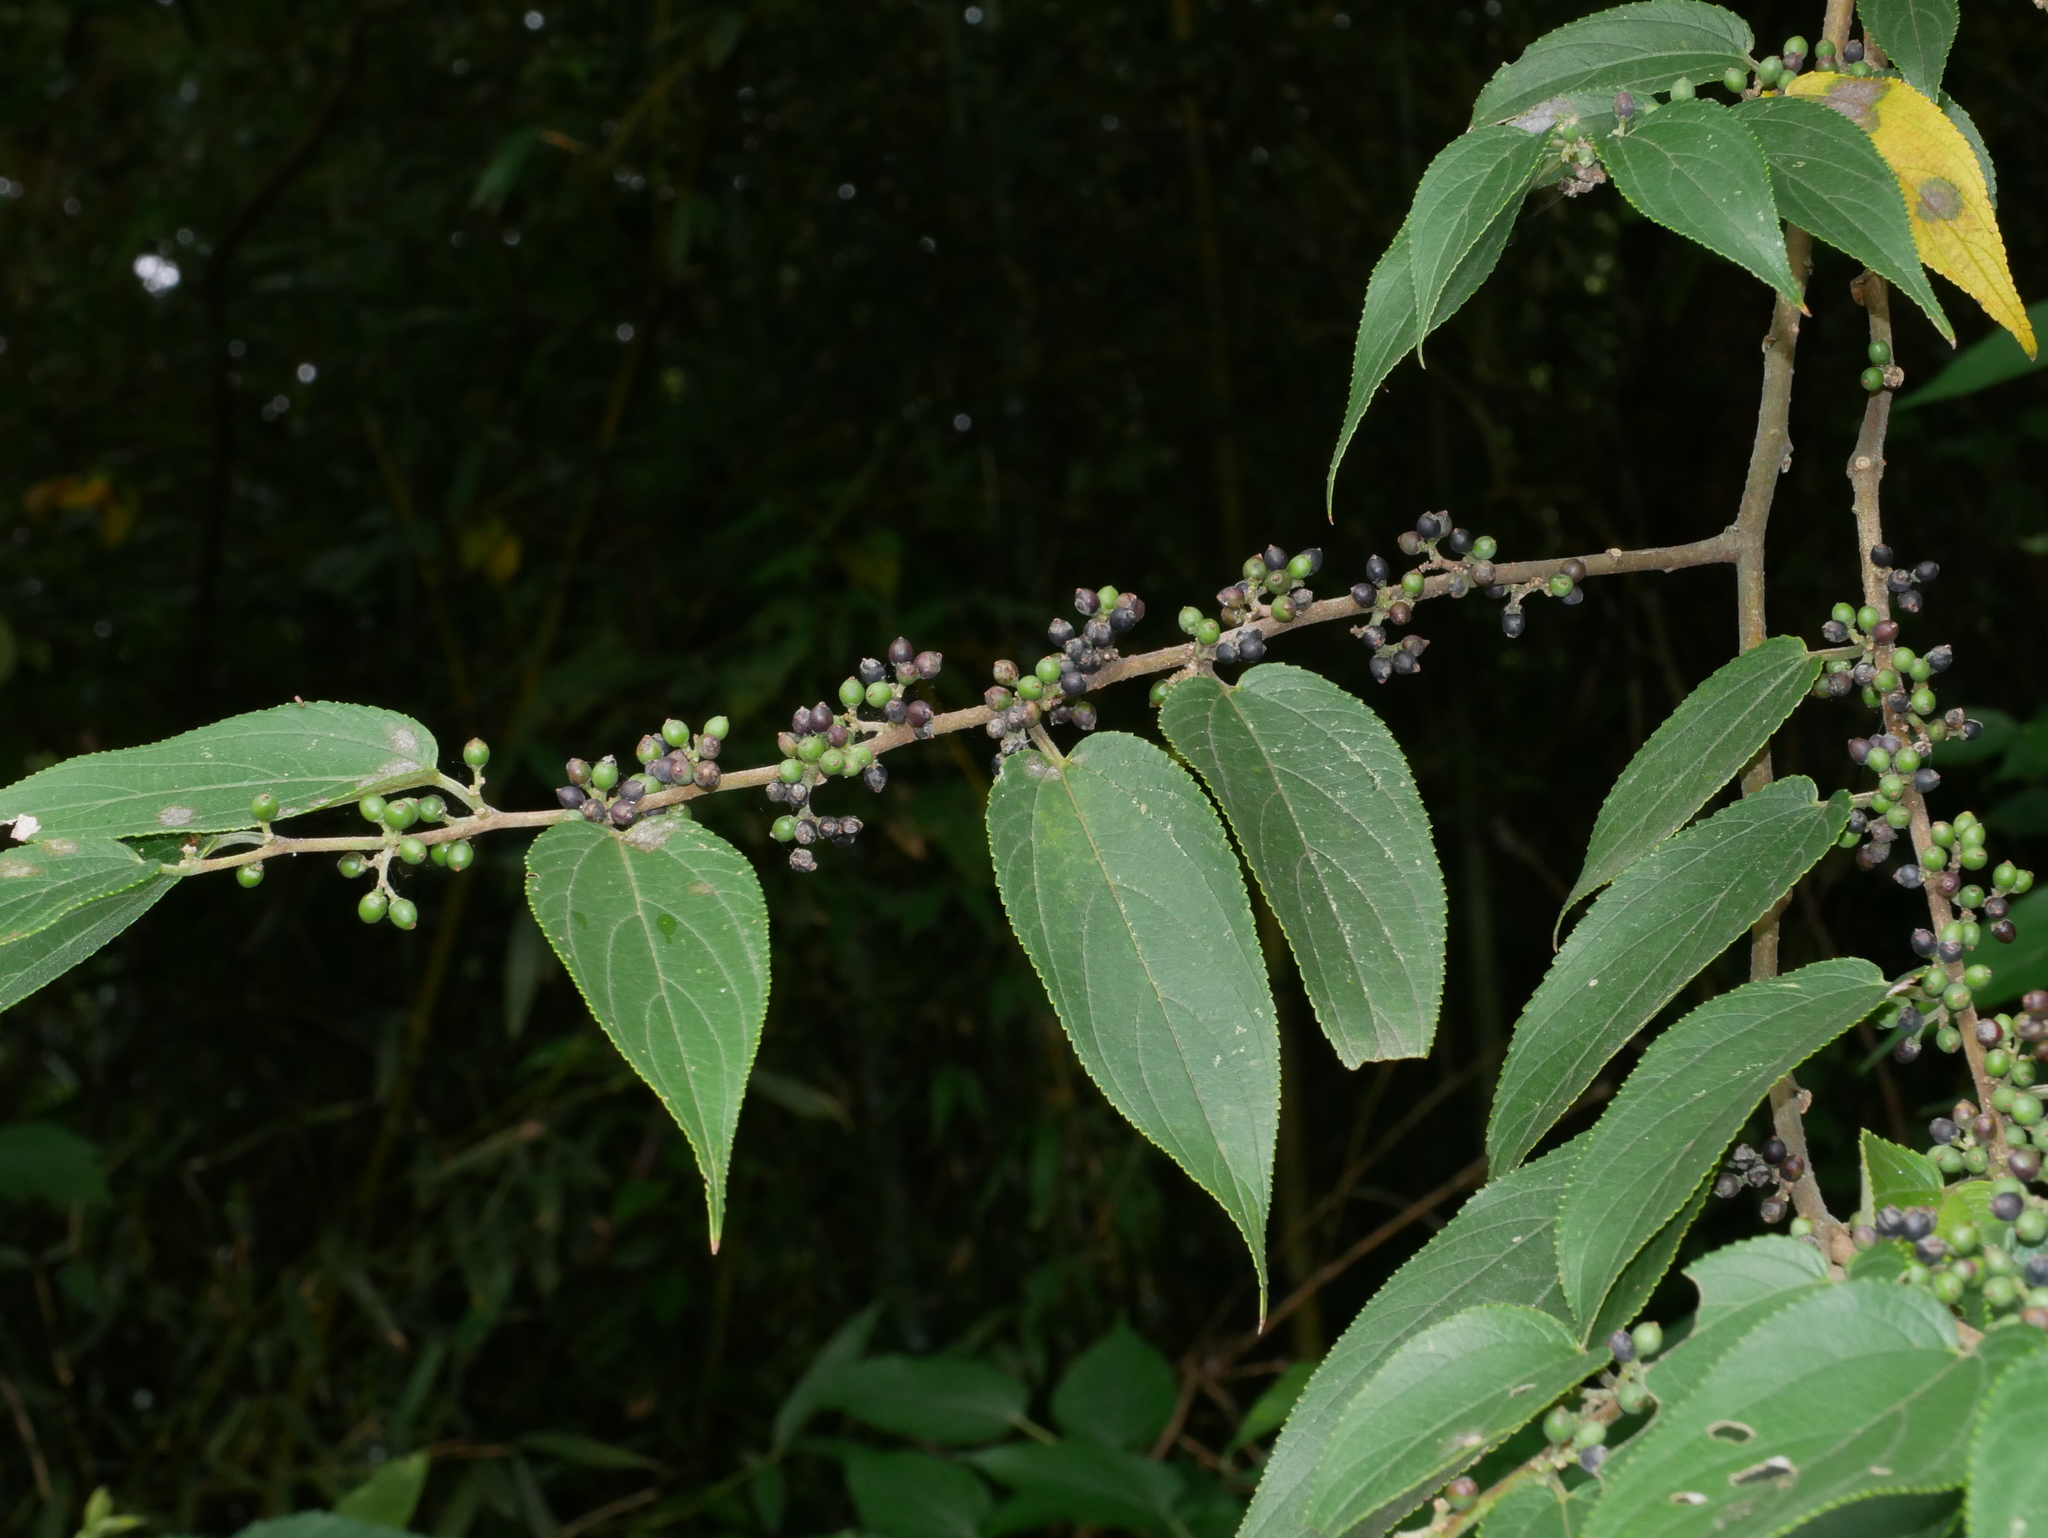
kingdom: Plantae
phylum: Tracheophyta
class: Magnoliopsida
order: Rosales
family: Cannabaceae
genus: Trema
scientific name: Trema orientale
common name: Indian charcoal tree
